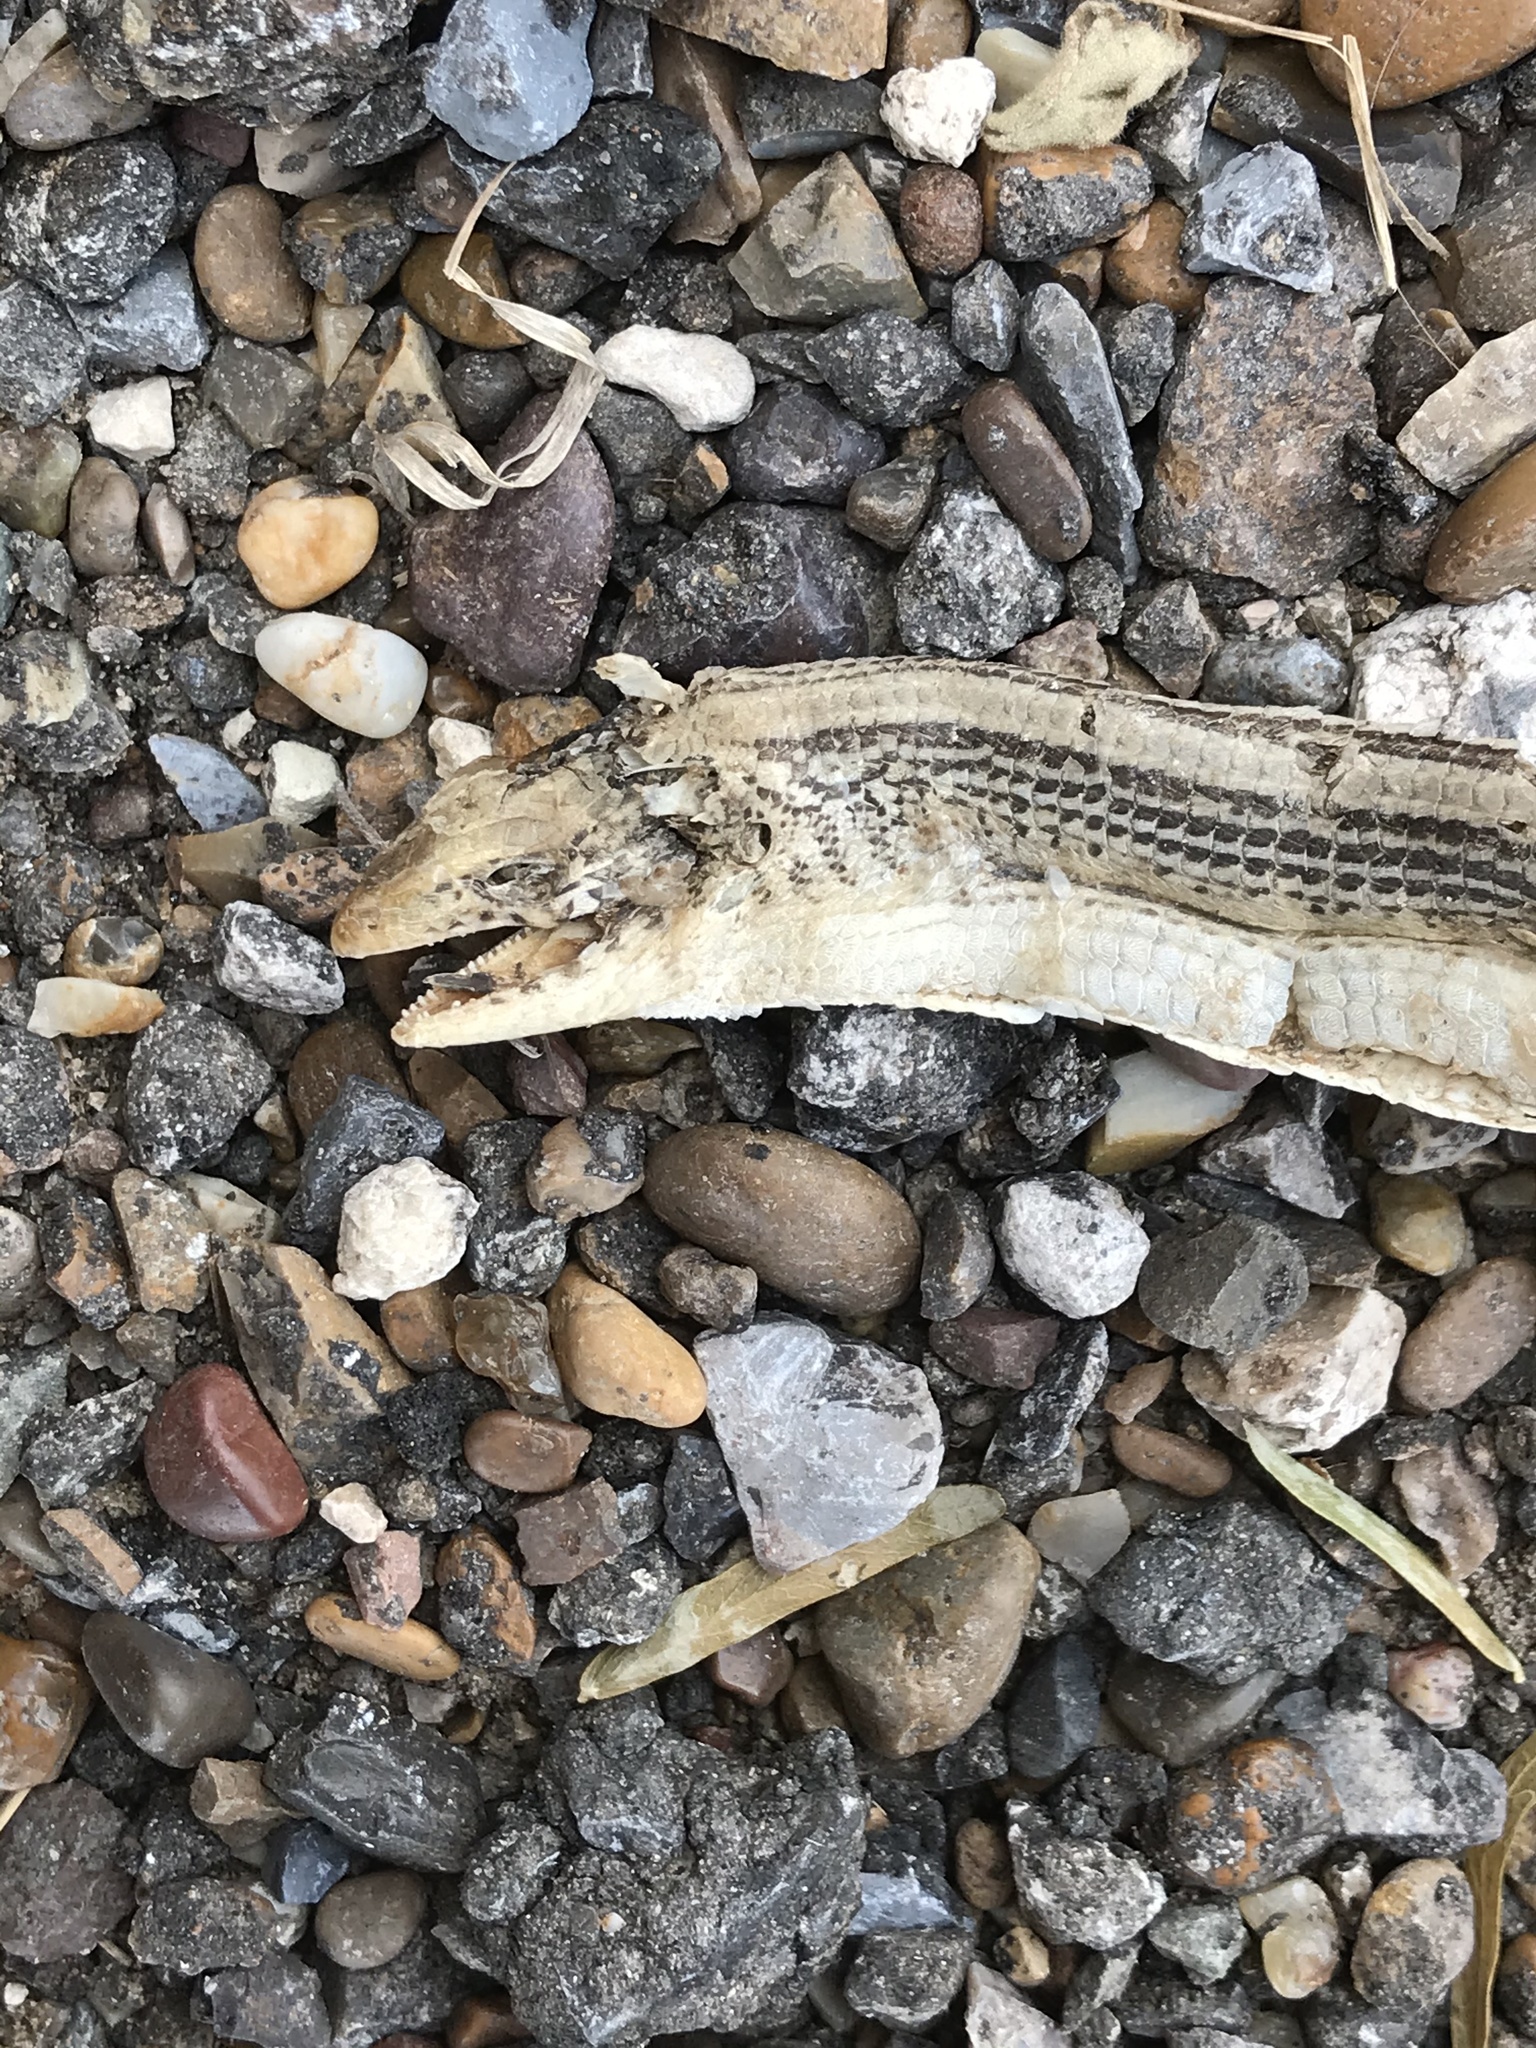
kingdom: Animalia
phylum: Chordata
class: Squamata
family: Anguidae
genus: Ophisaurus
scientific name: Ophisaurus attenuatus
